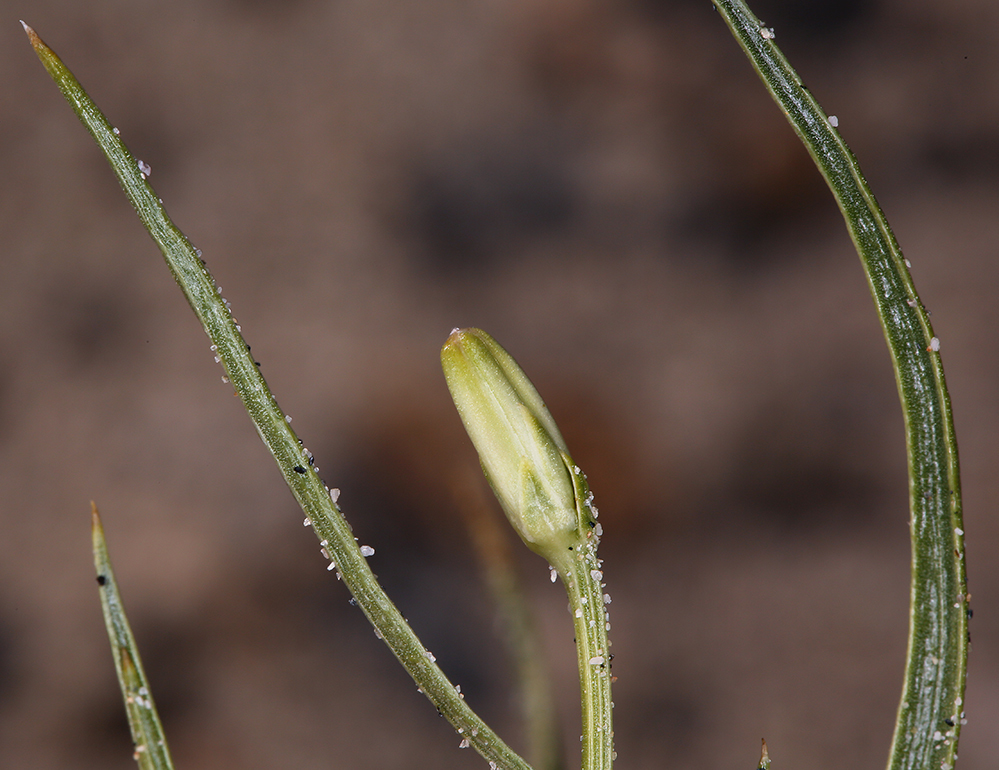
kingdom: Plantae
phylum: Tracheophyta
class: Magnoliopsida
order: Asterales
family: Asteraceae
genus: Chaetadelpha
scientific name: Chaetadelpha wheeleri
